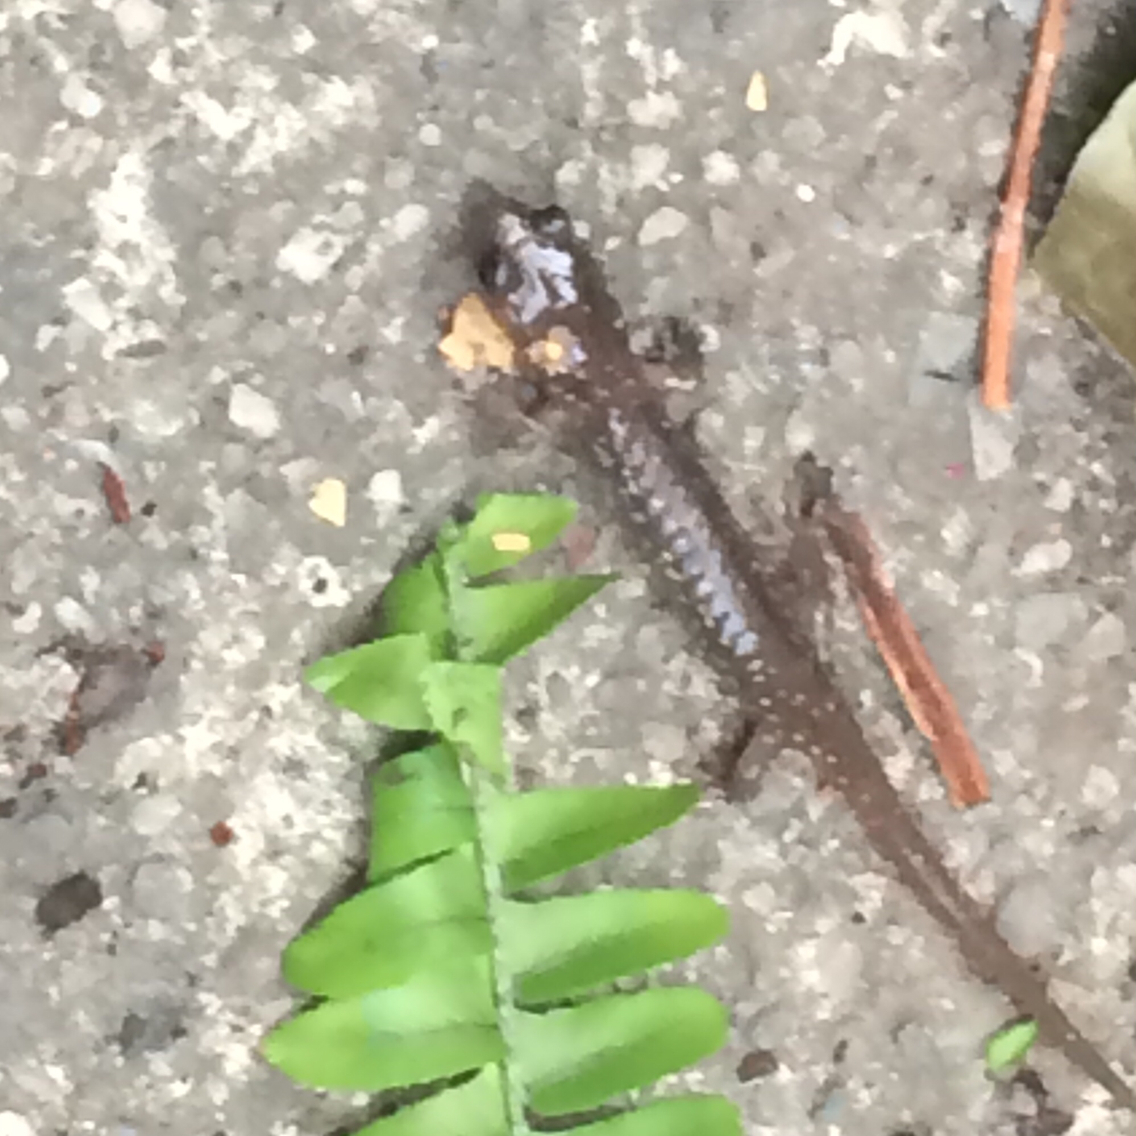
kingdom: Animalia
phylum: Chordata
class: Amphibia
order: Caudata
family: Plethodontidae
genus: Aneides
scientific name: Aneides lugubris
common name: Arboreal salamander
